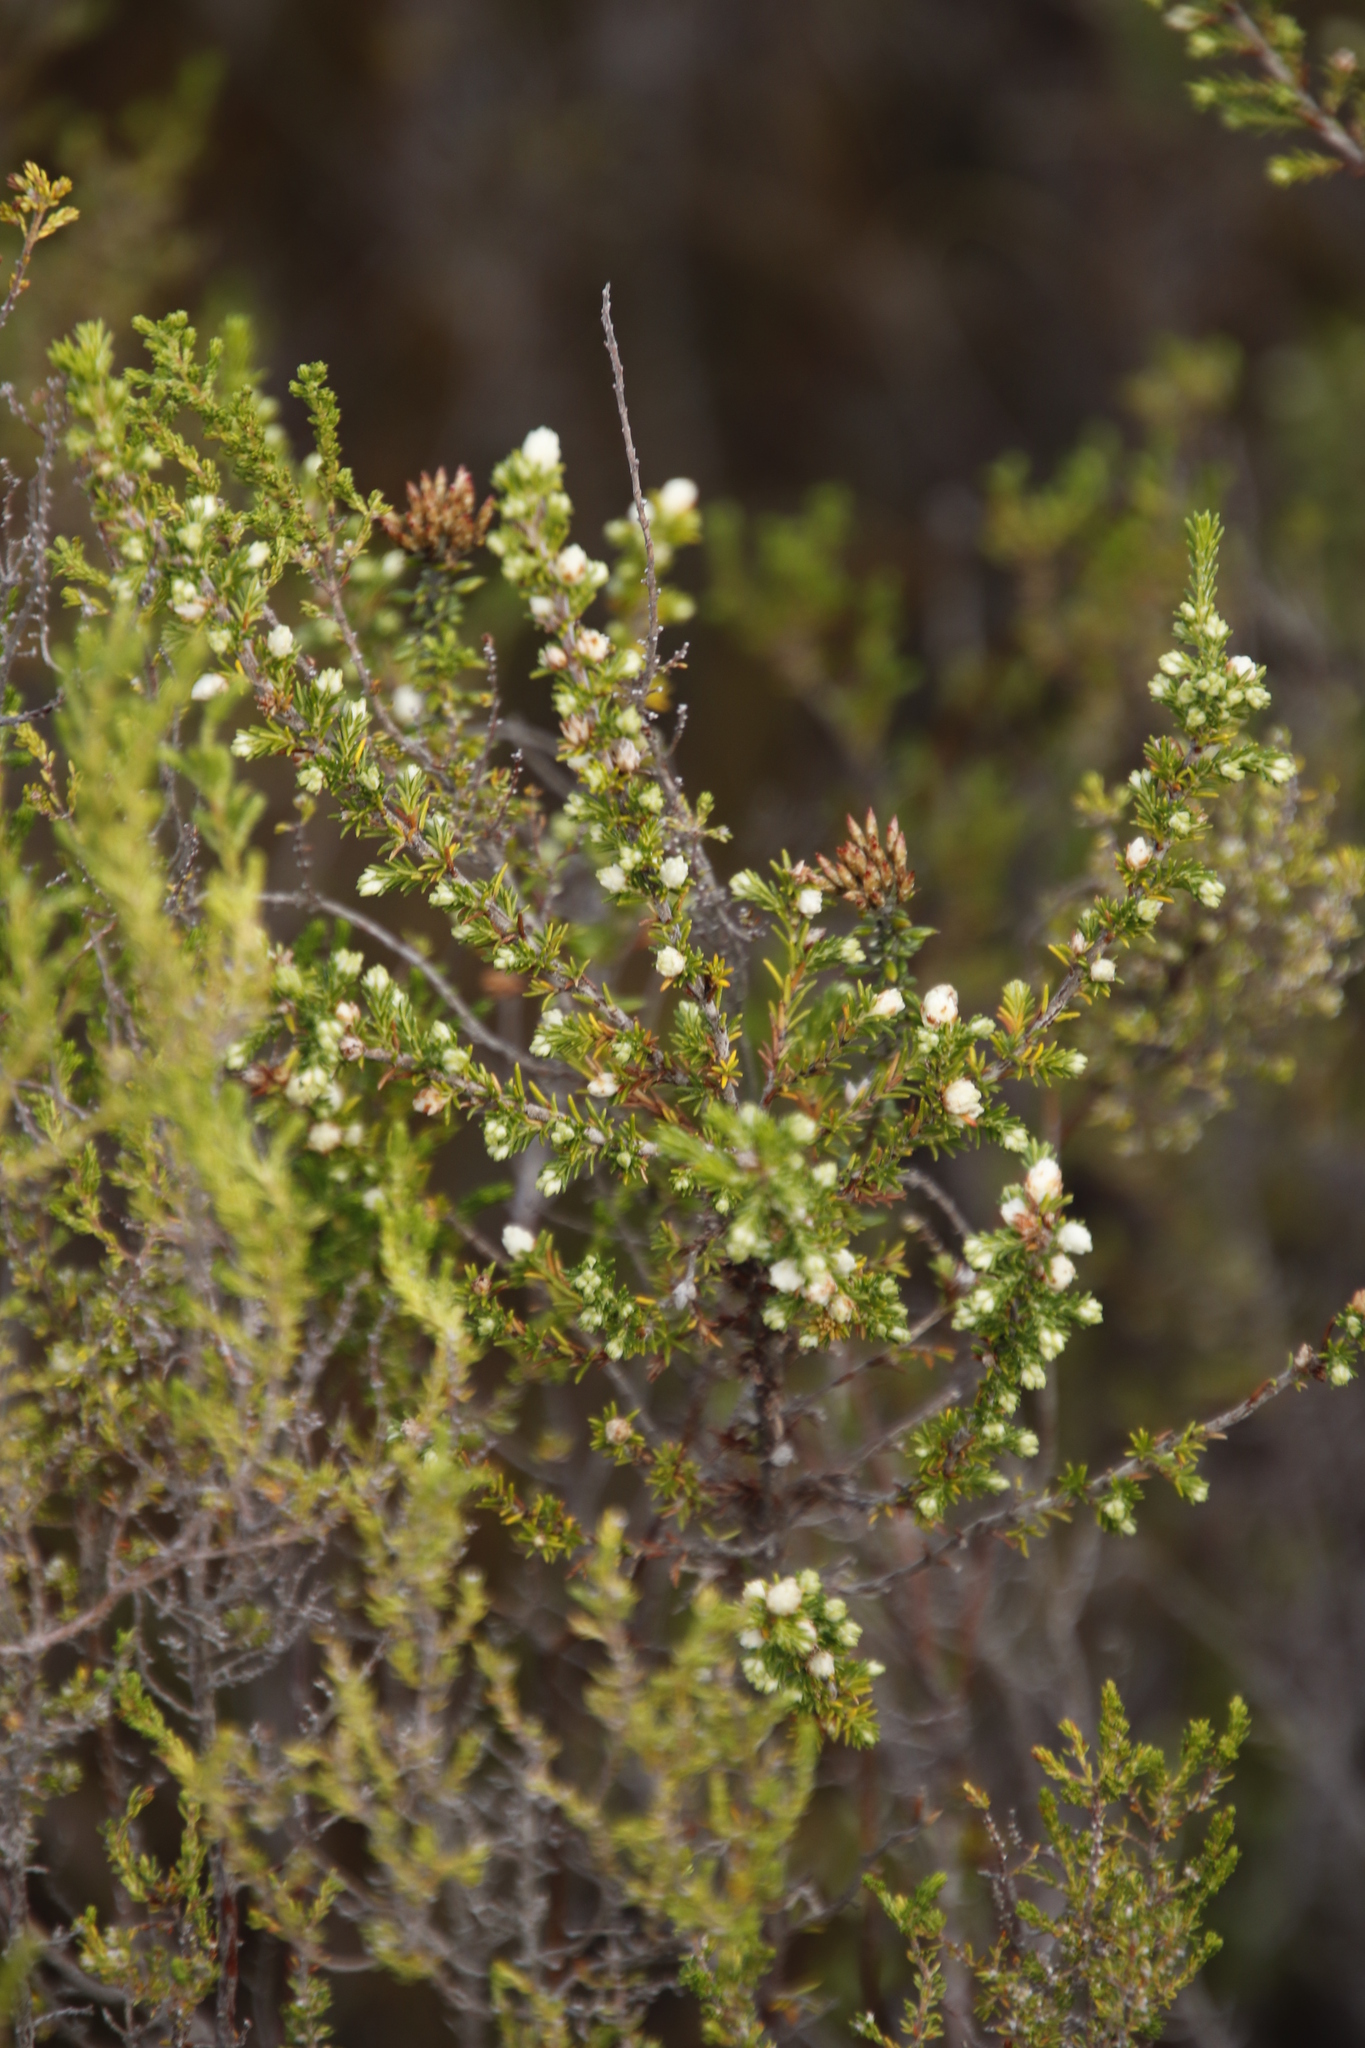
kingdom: Plantae
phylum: Tracheophyta
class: Magnoliopsida
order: Ericales
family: Ericaceae
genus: Erica
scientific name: Erica imbricata
